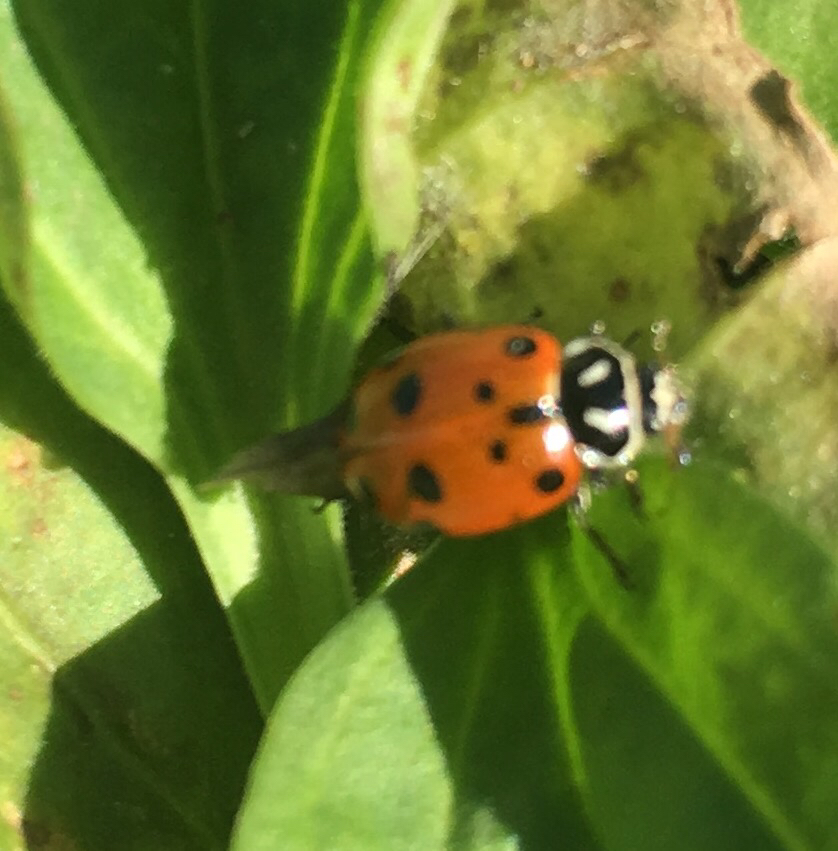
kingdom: Animalia
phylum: Arthropoda
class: Insecta
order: Coleoptera
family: Coccinellidae
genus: Hippodamia
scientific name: Hippodamia convergens
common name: Convergent lady beetle
